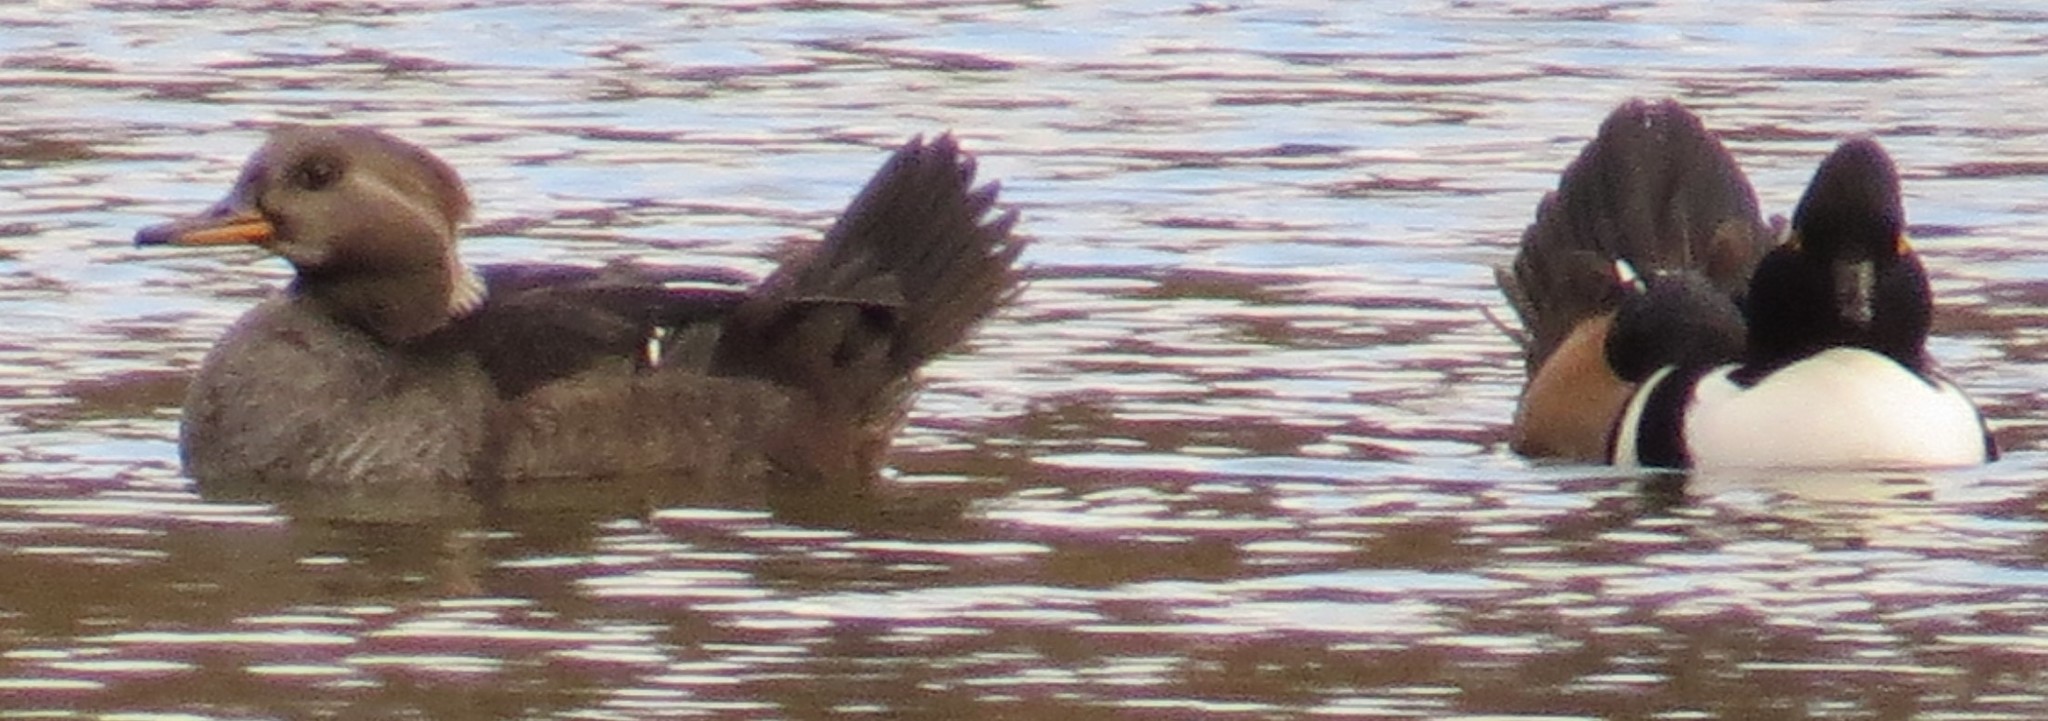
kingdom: Animalia
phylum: Chordata
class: Aves
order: Anseriformes
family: Anatidae
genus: Lophodytes
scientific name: Lophodytes cucullatus
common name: Hooded merganser
